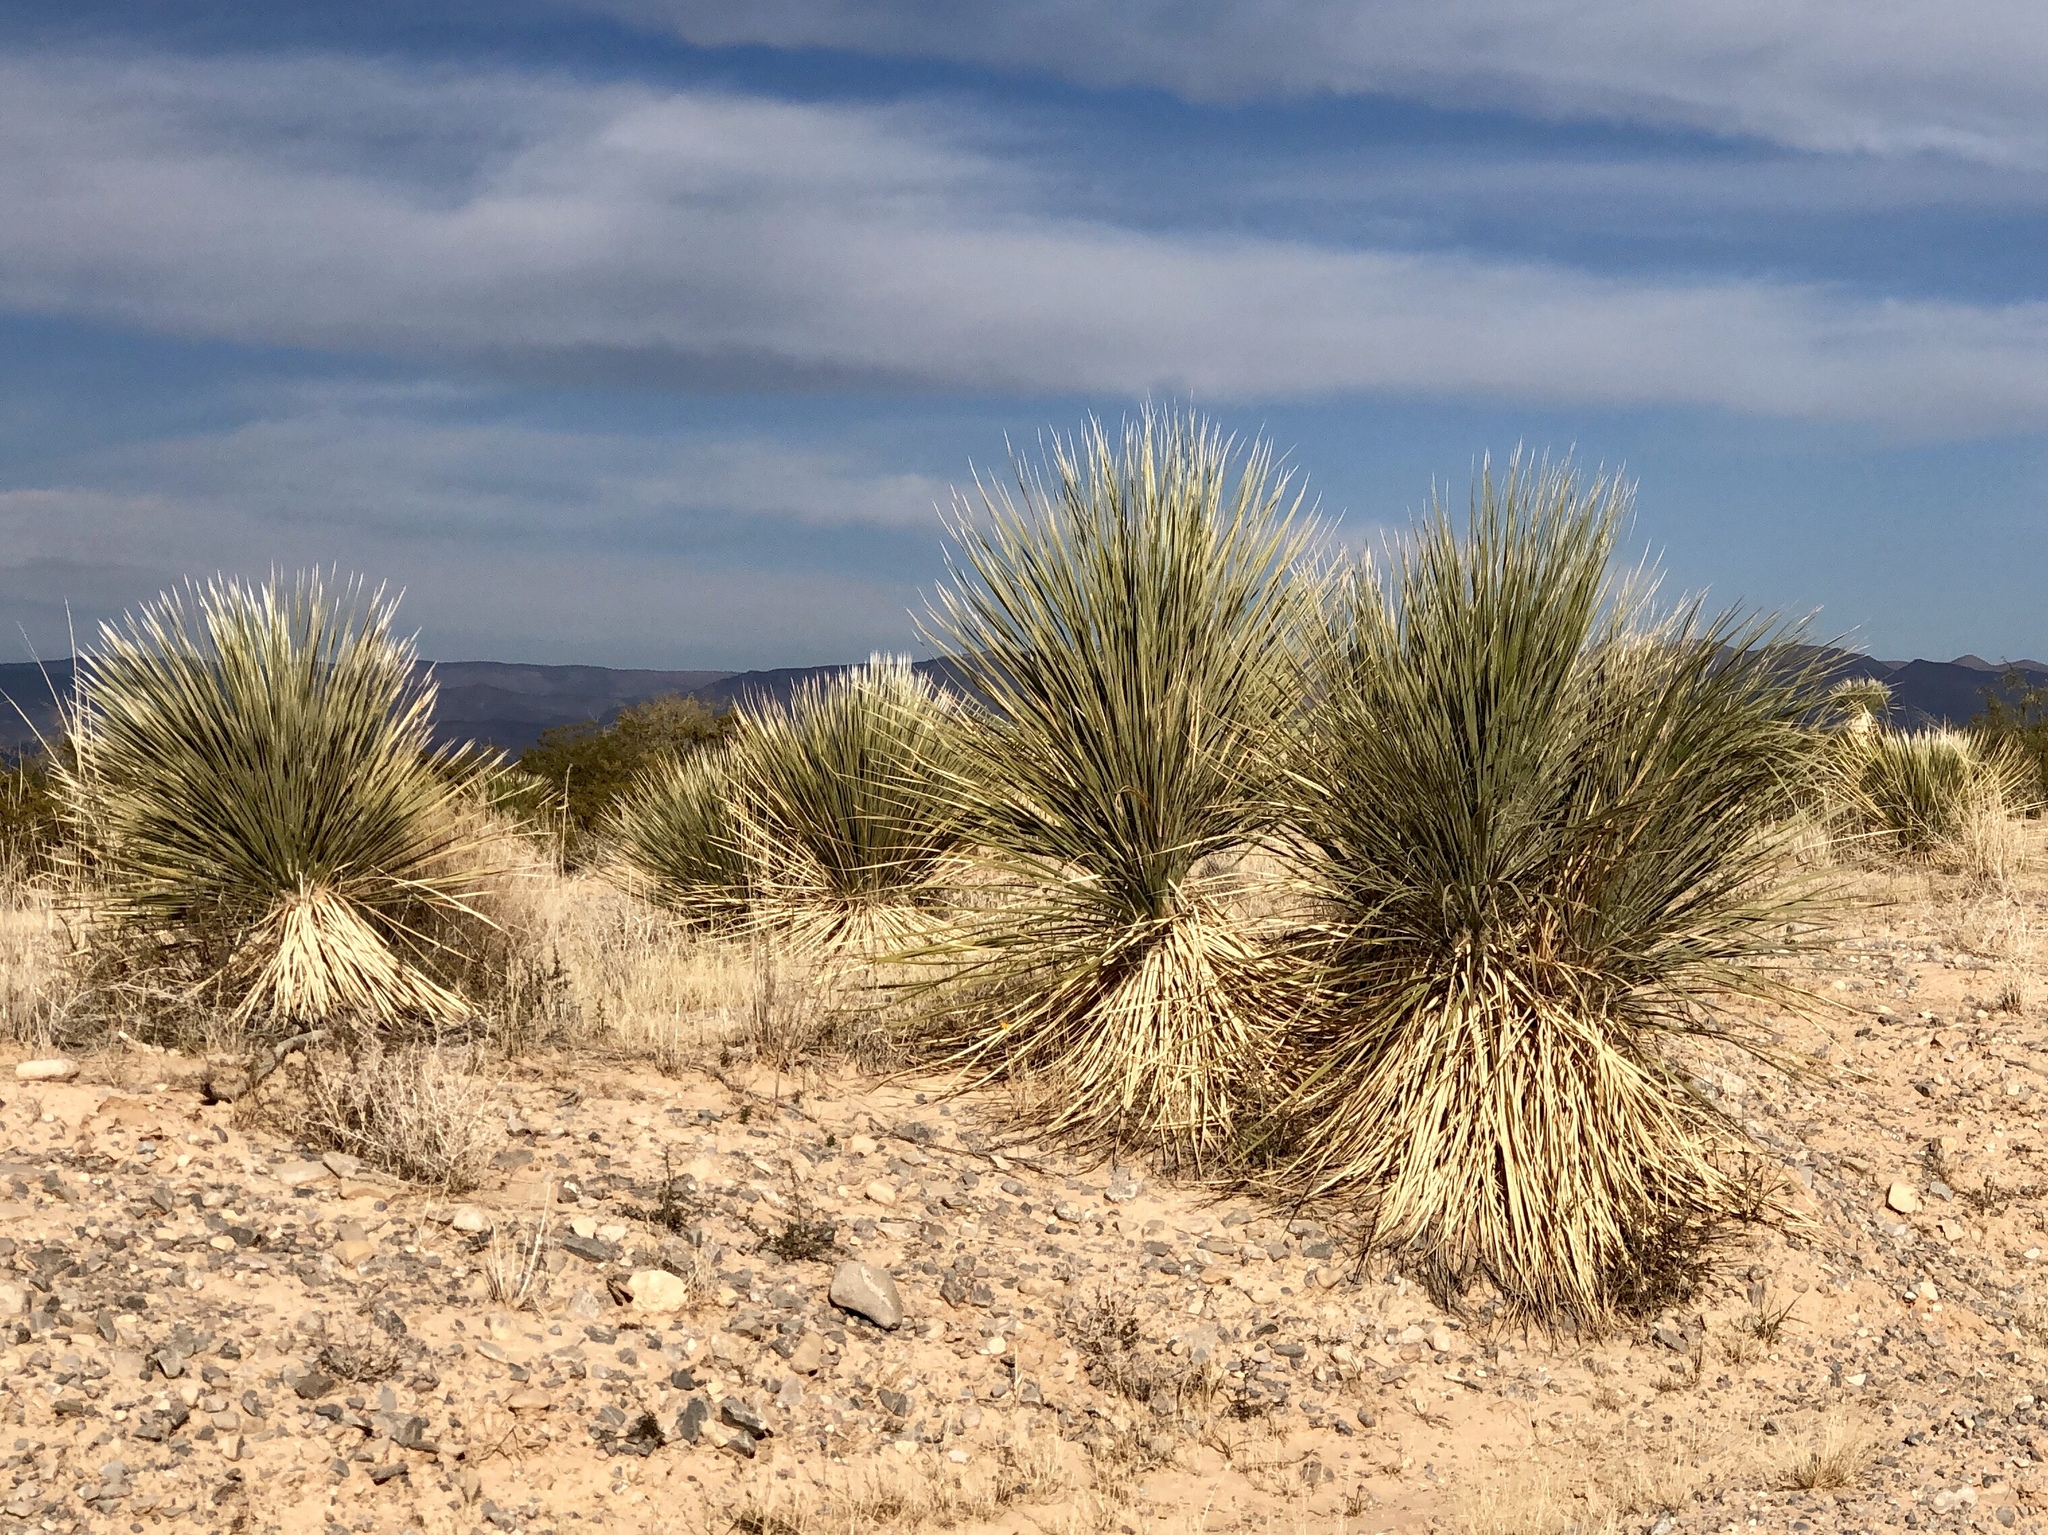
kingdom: Plantae
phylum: Tracheophyta
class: Liliopsida
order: Asparagales
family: Asparagaceae
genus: Yucca
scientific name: Yucca elata
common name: Palmella
